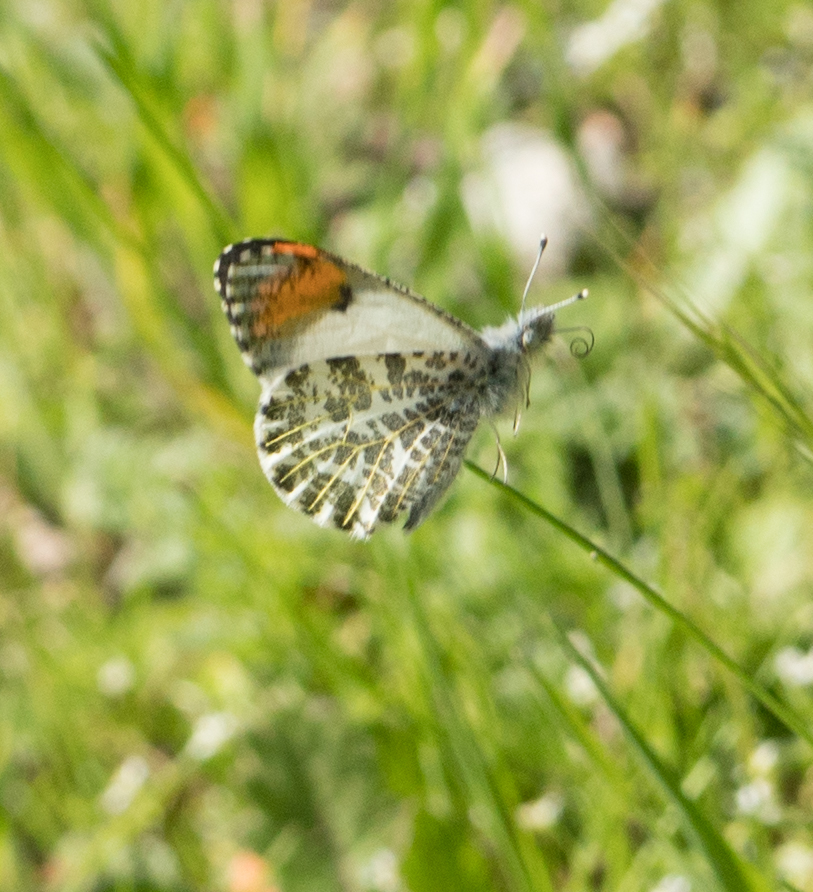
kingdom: Animalia
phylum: Arthropoda
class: Insecta
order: Lepidoptera
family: Pieridae
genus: Anthocharis
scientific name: Anthocharis sara
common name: Sara's orangetip
